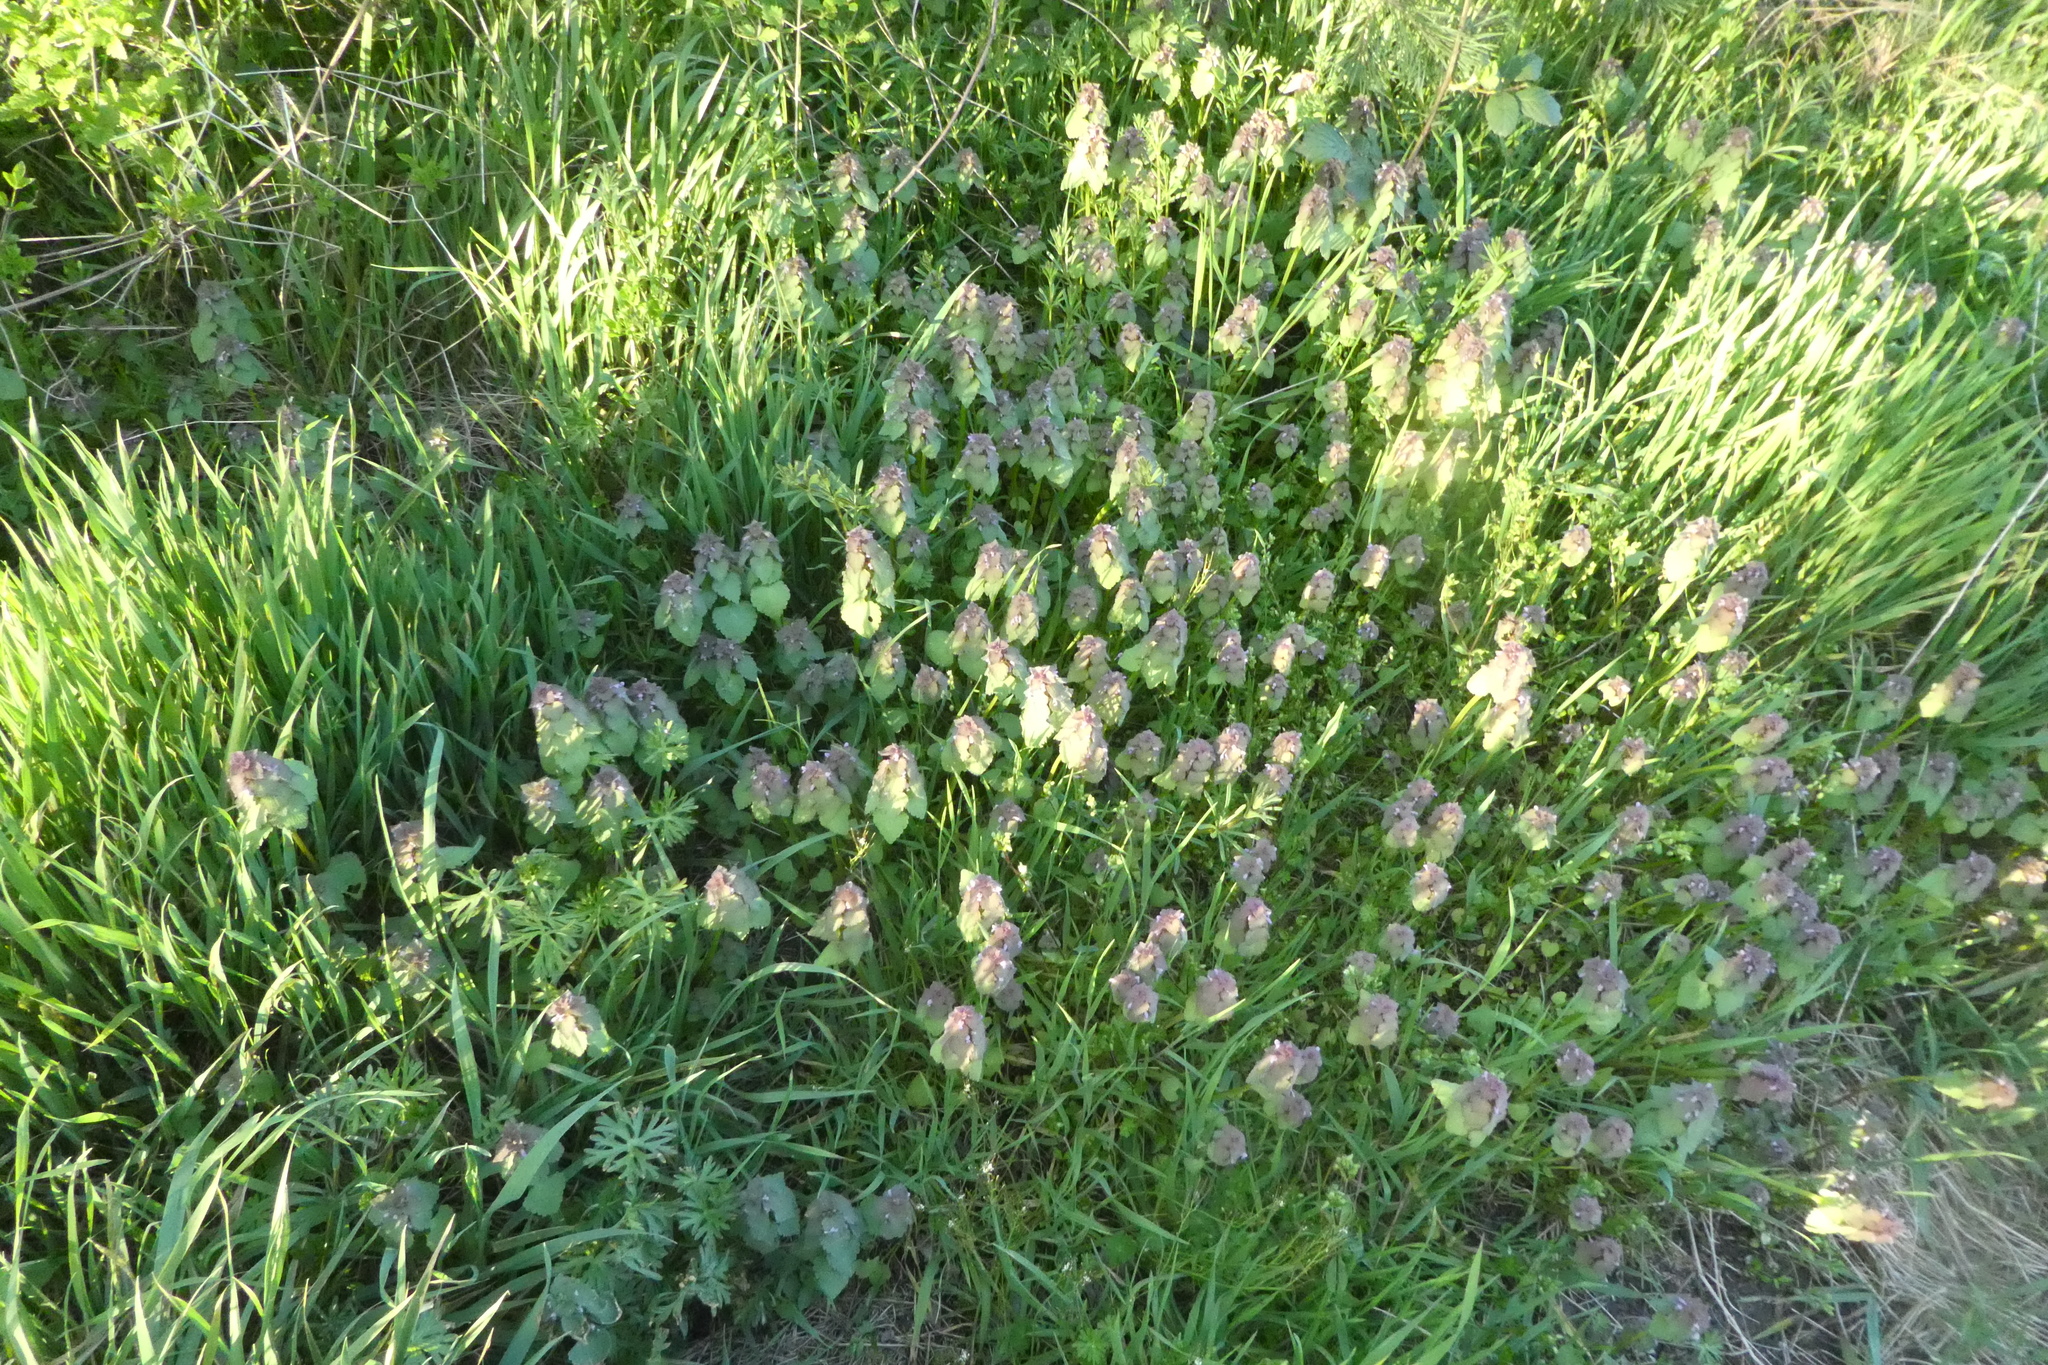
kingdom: Plantae
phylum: Tracheophyta
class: Magnoliopsida
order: Lamiales
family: Lamiaceae
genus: Lamium
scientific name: Lamium purpureum
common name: Red dead-nettle
